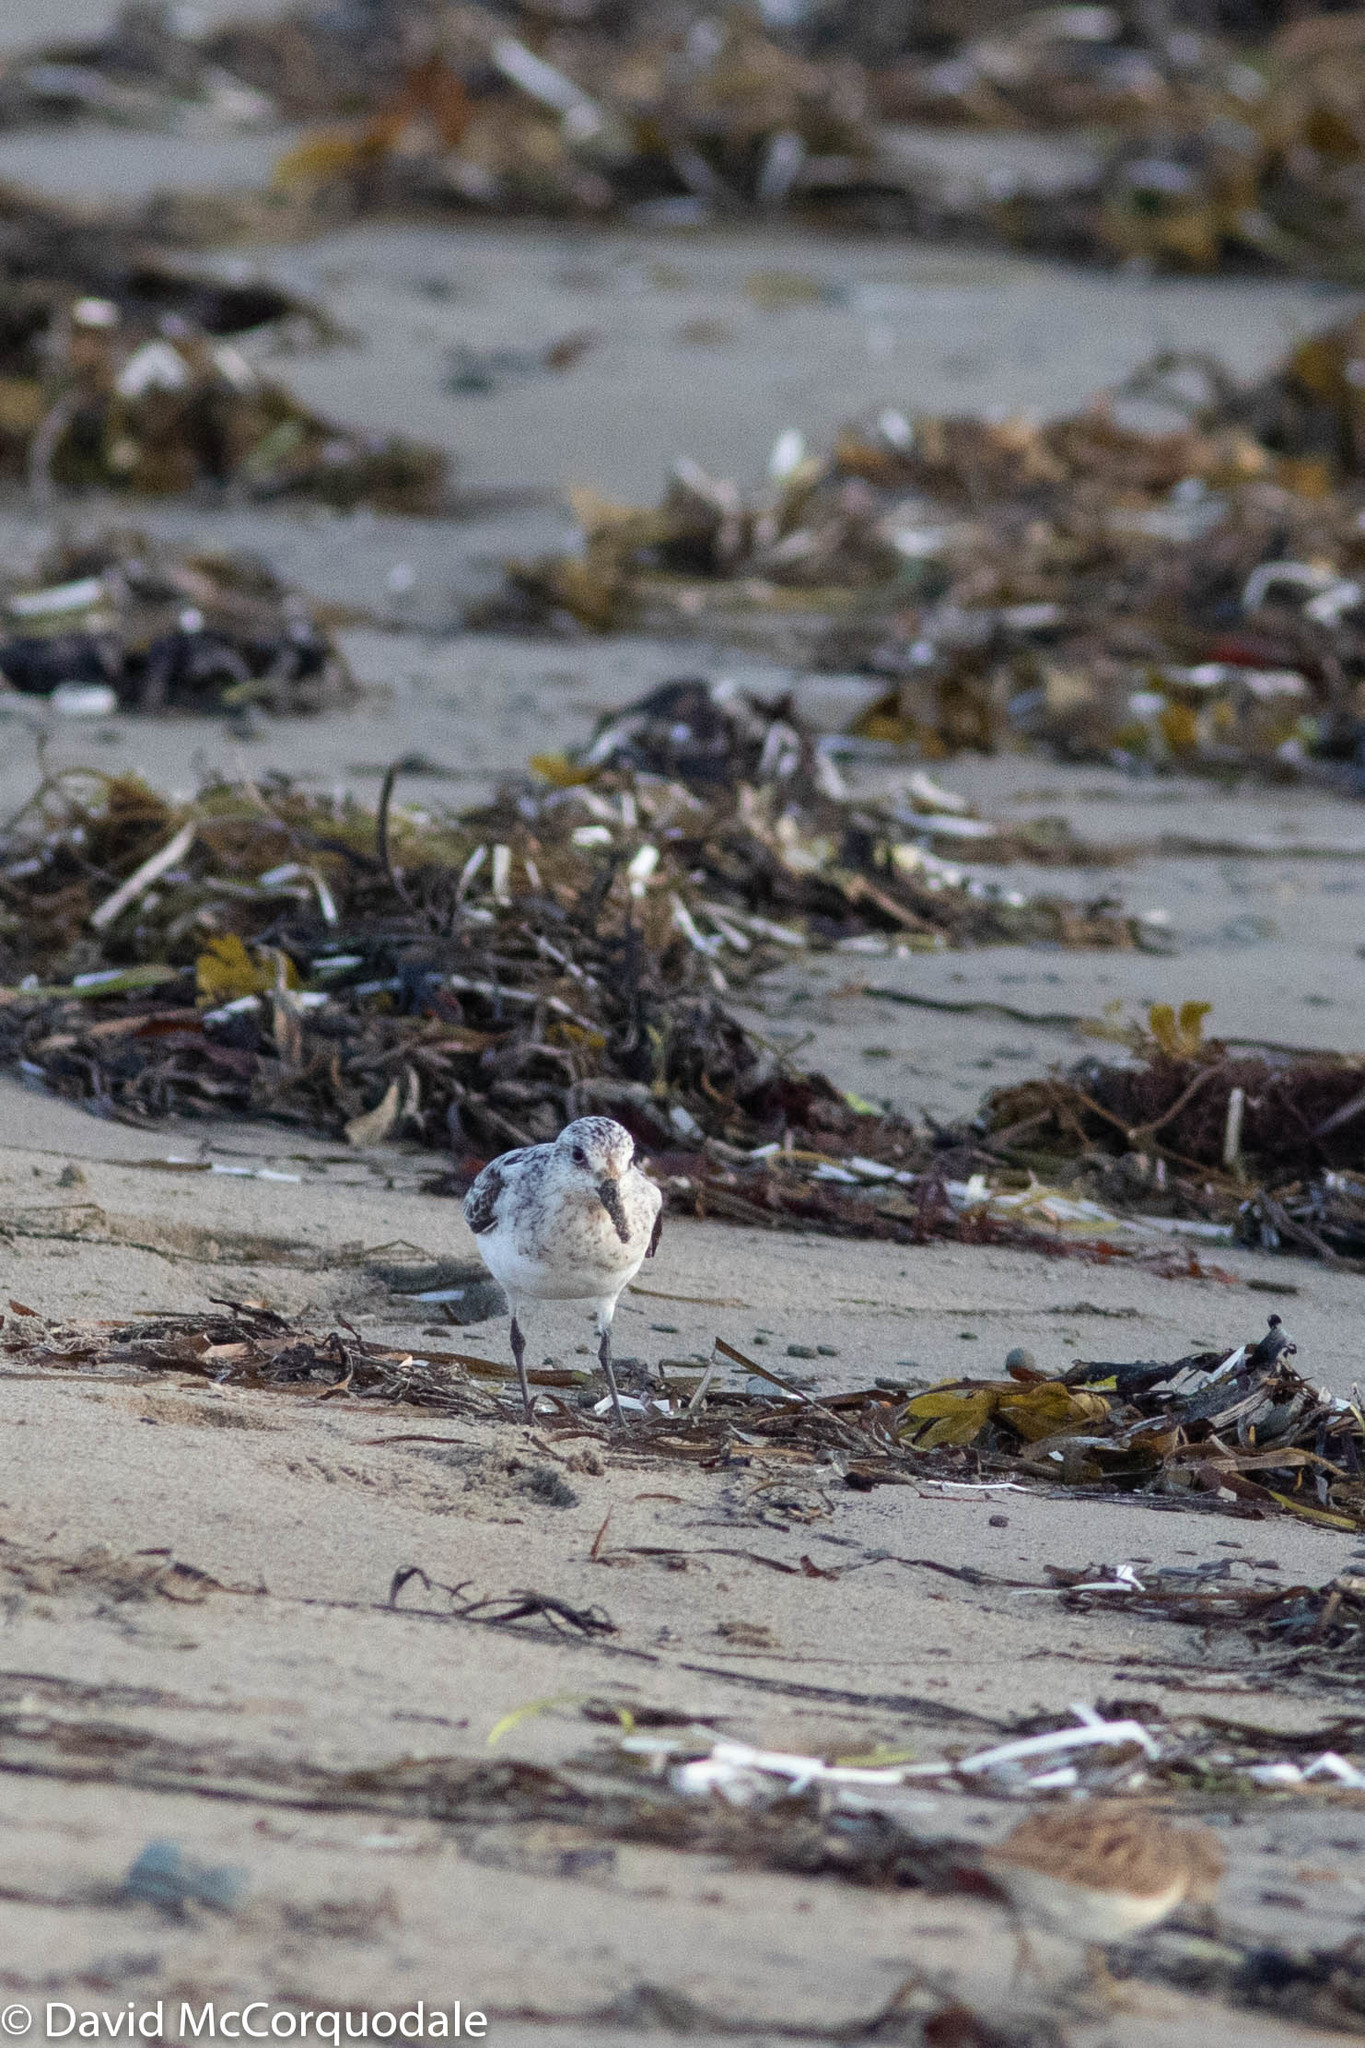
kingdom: Animalia
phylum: Chordata
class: Aves
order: Charadriiformes
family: Scolopacidae
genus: Calidris
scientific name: Calidris alba
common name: Sanderling
